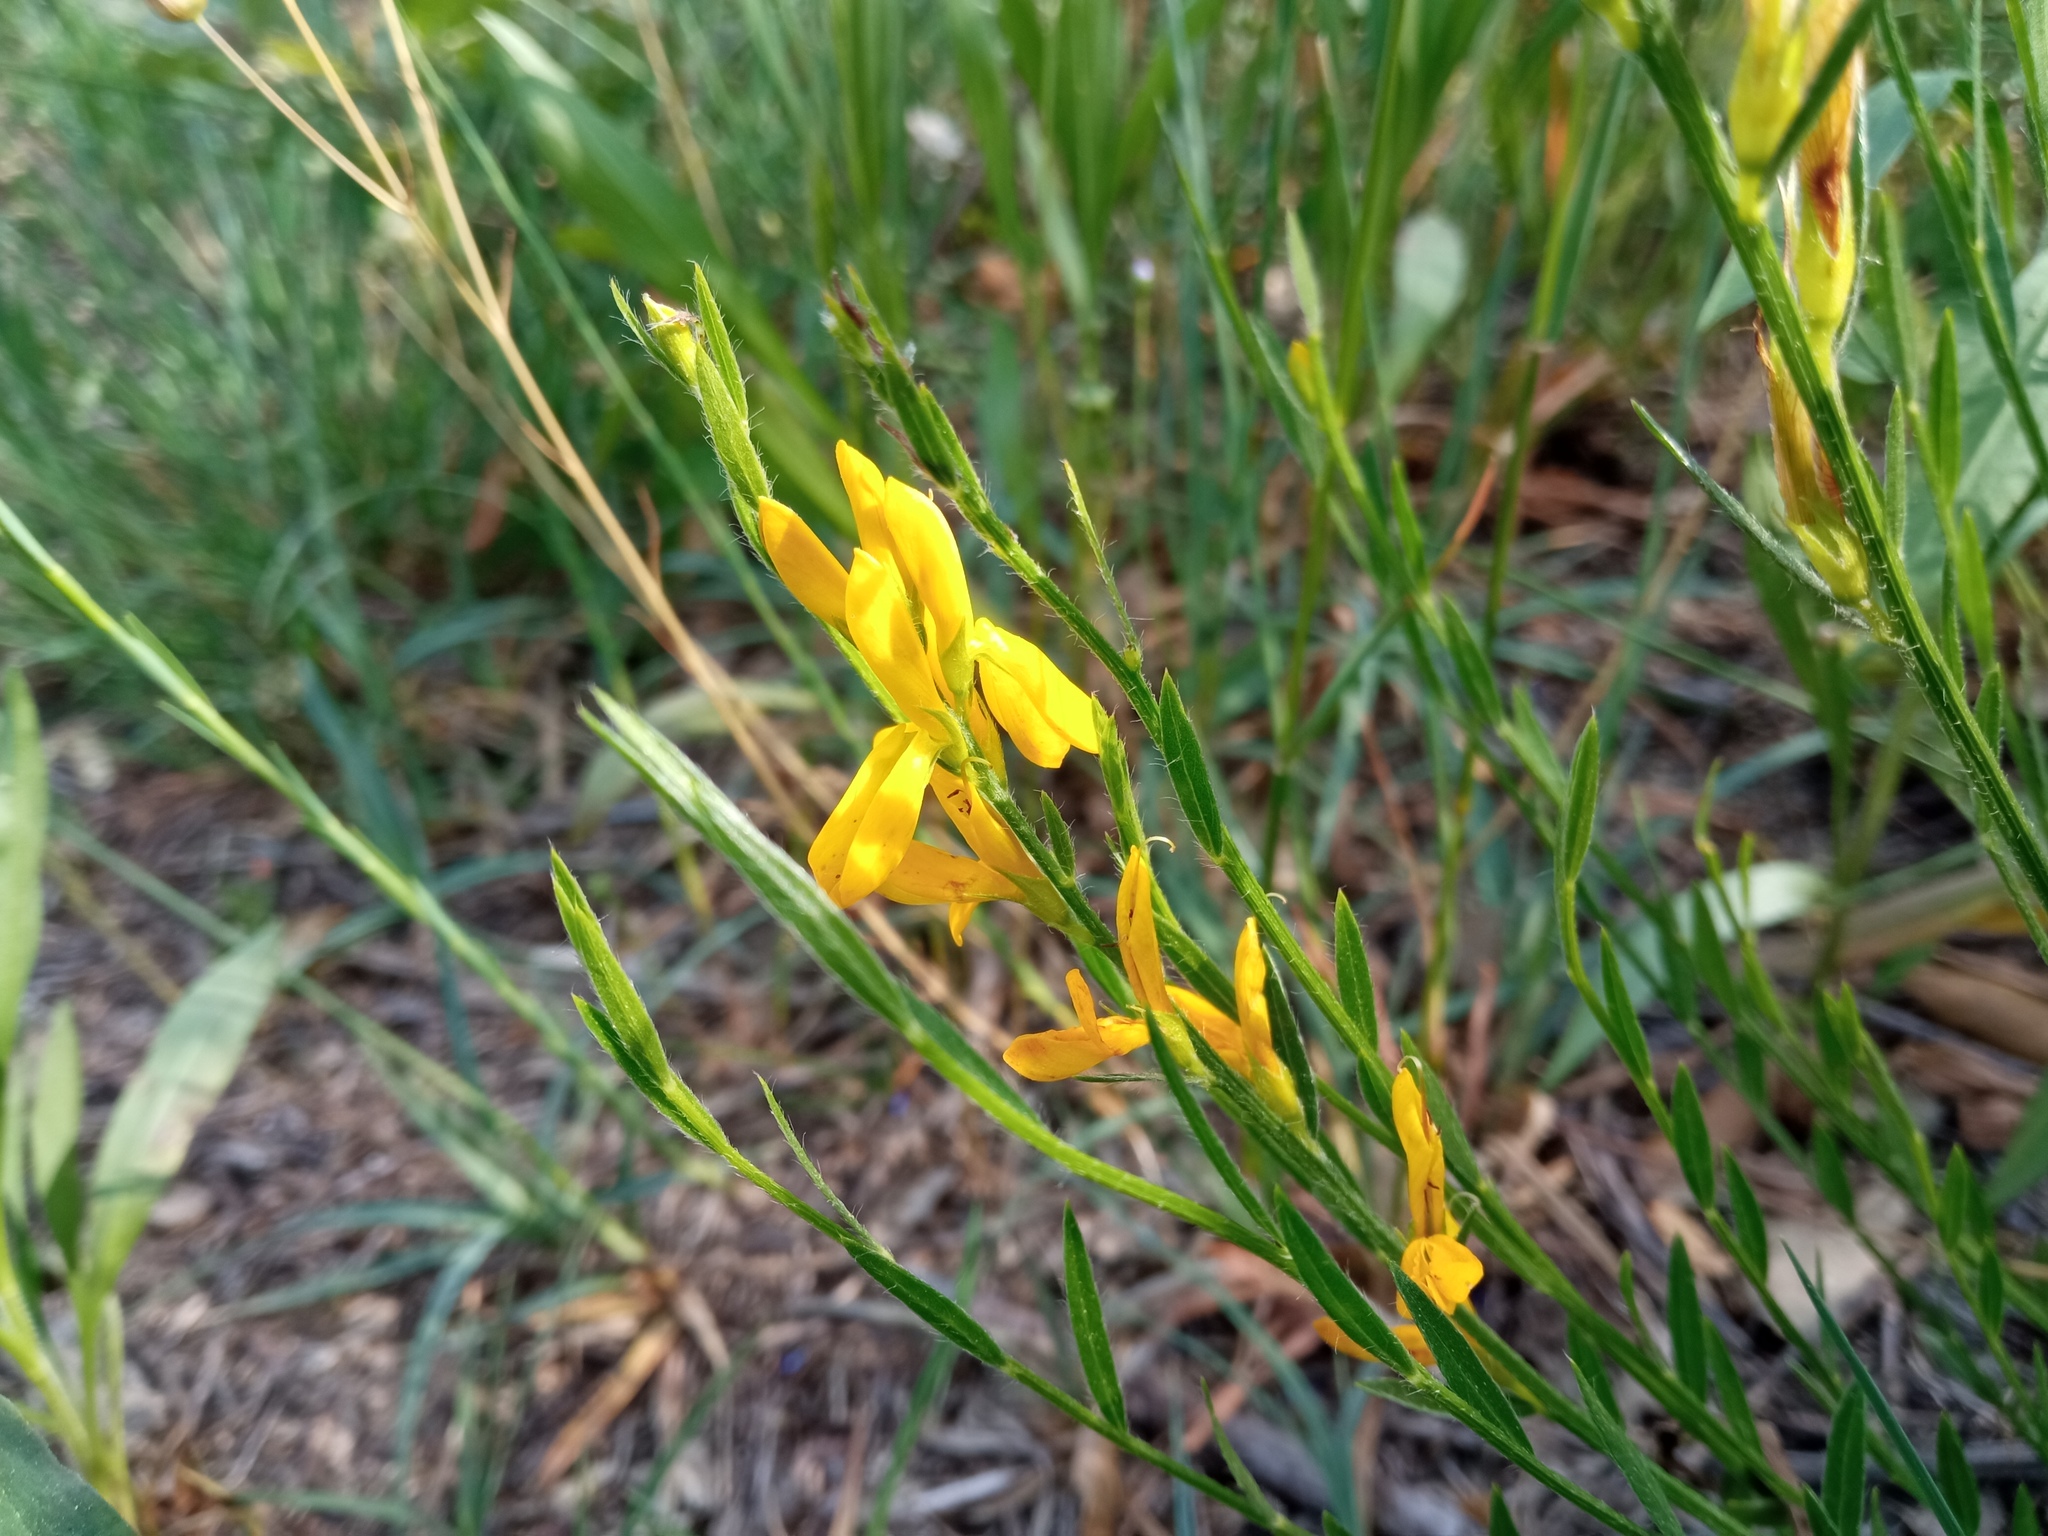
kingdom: Plantae
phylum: Tracheophyta
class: Magnoliopsida
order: Fabales
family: Fabaceae
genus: Genista
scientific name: Genista tinctoria
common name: Dyer's greenweed
